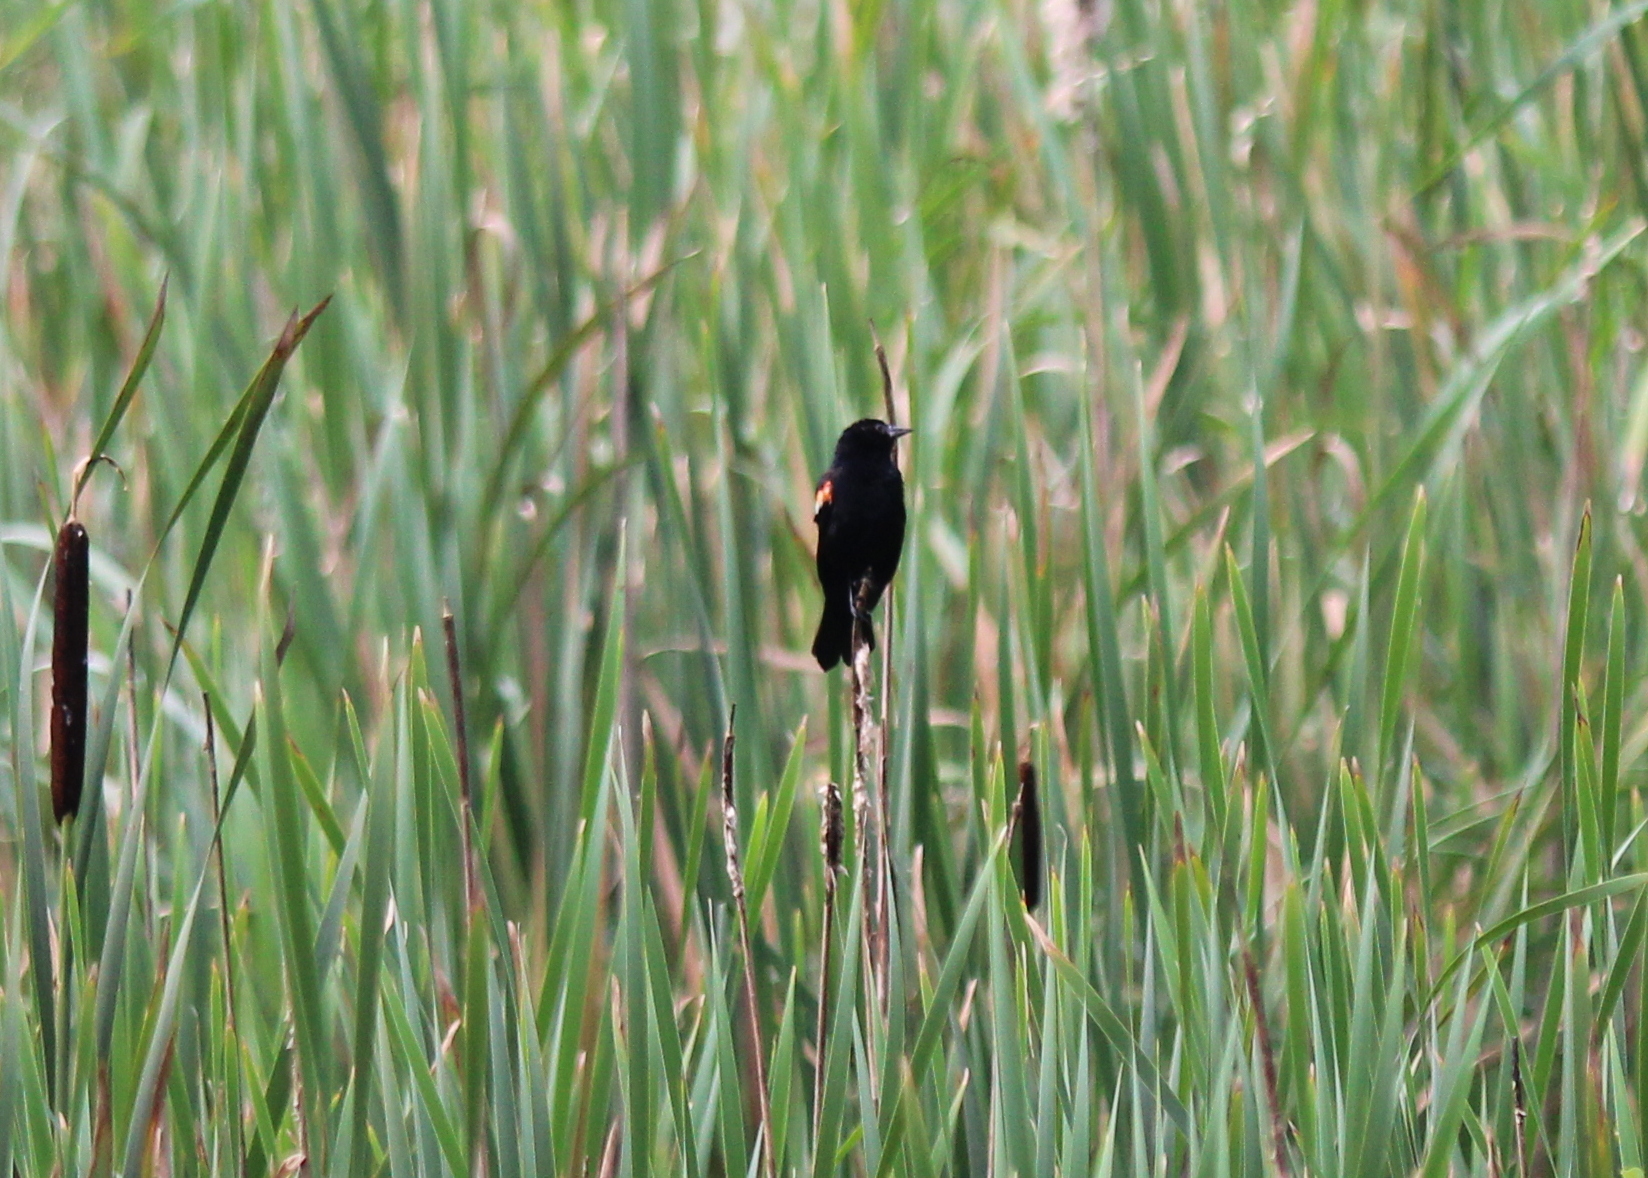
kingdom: Animalia
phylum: Chordata
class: Aves
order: Passeriformes
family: Icteridae
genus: Agelaius
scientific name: Agelaius phoeniceus
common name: Red-winged blackbird
